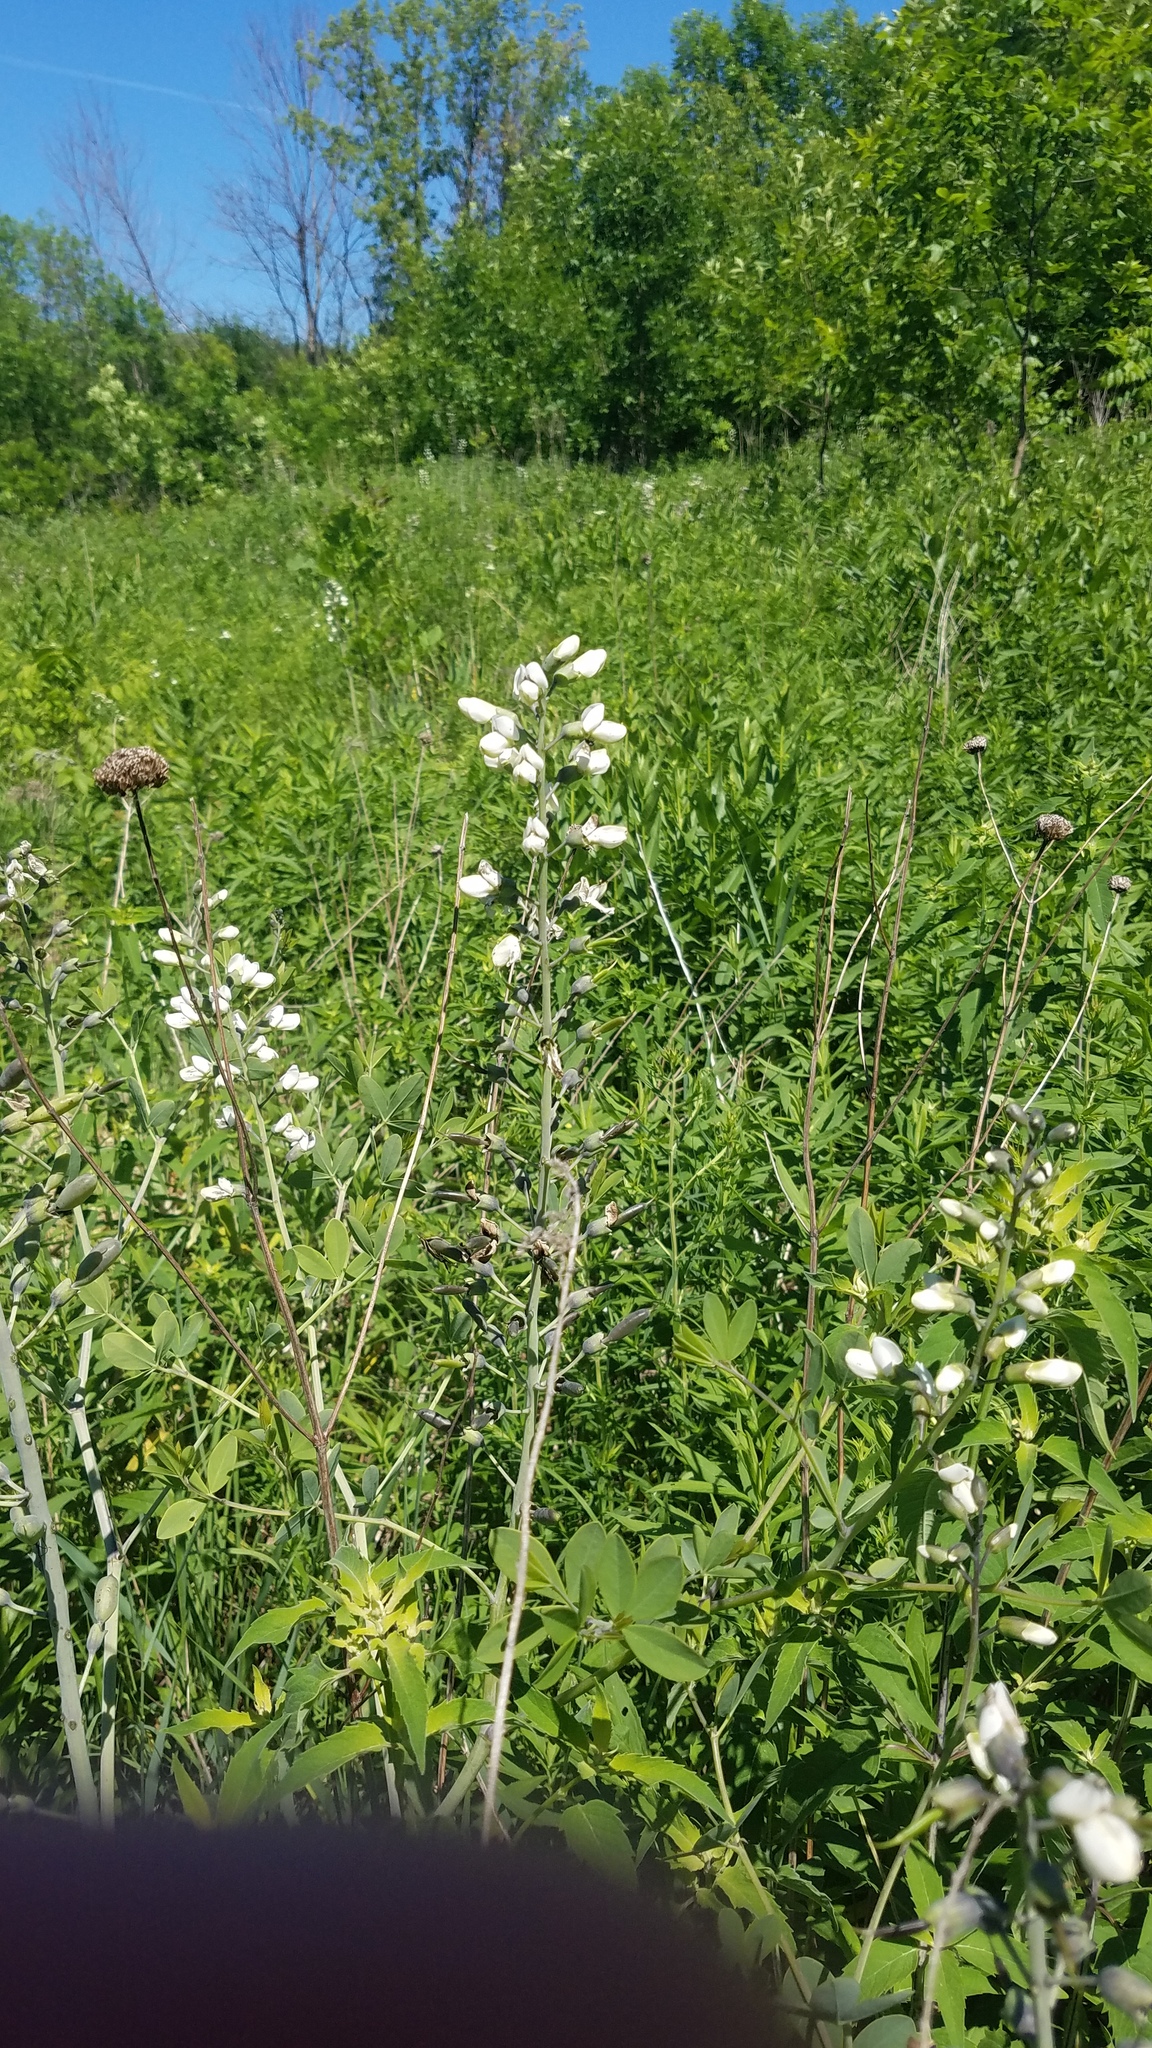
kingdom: Plantae
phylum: Tracheophyta
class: Magnoliopsida
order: Fabales
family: Fabaceae
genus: Baptisia
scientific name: Baptisia alba
